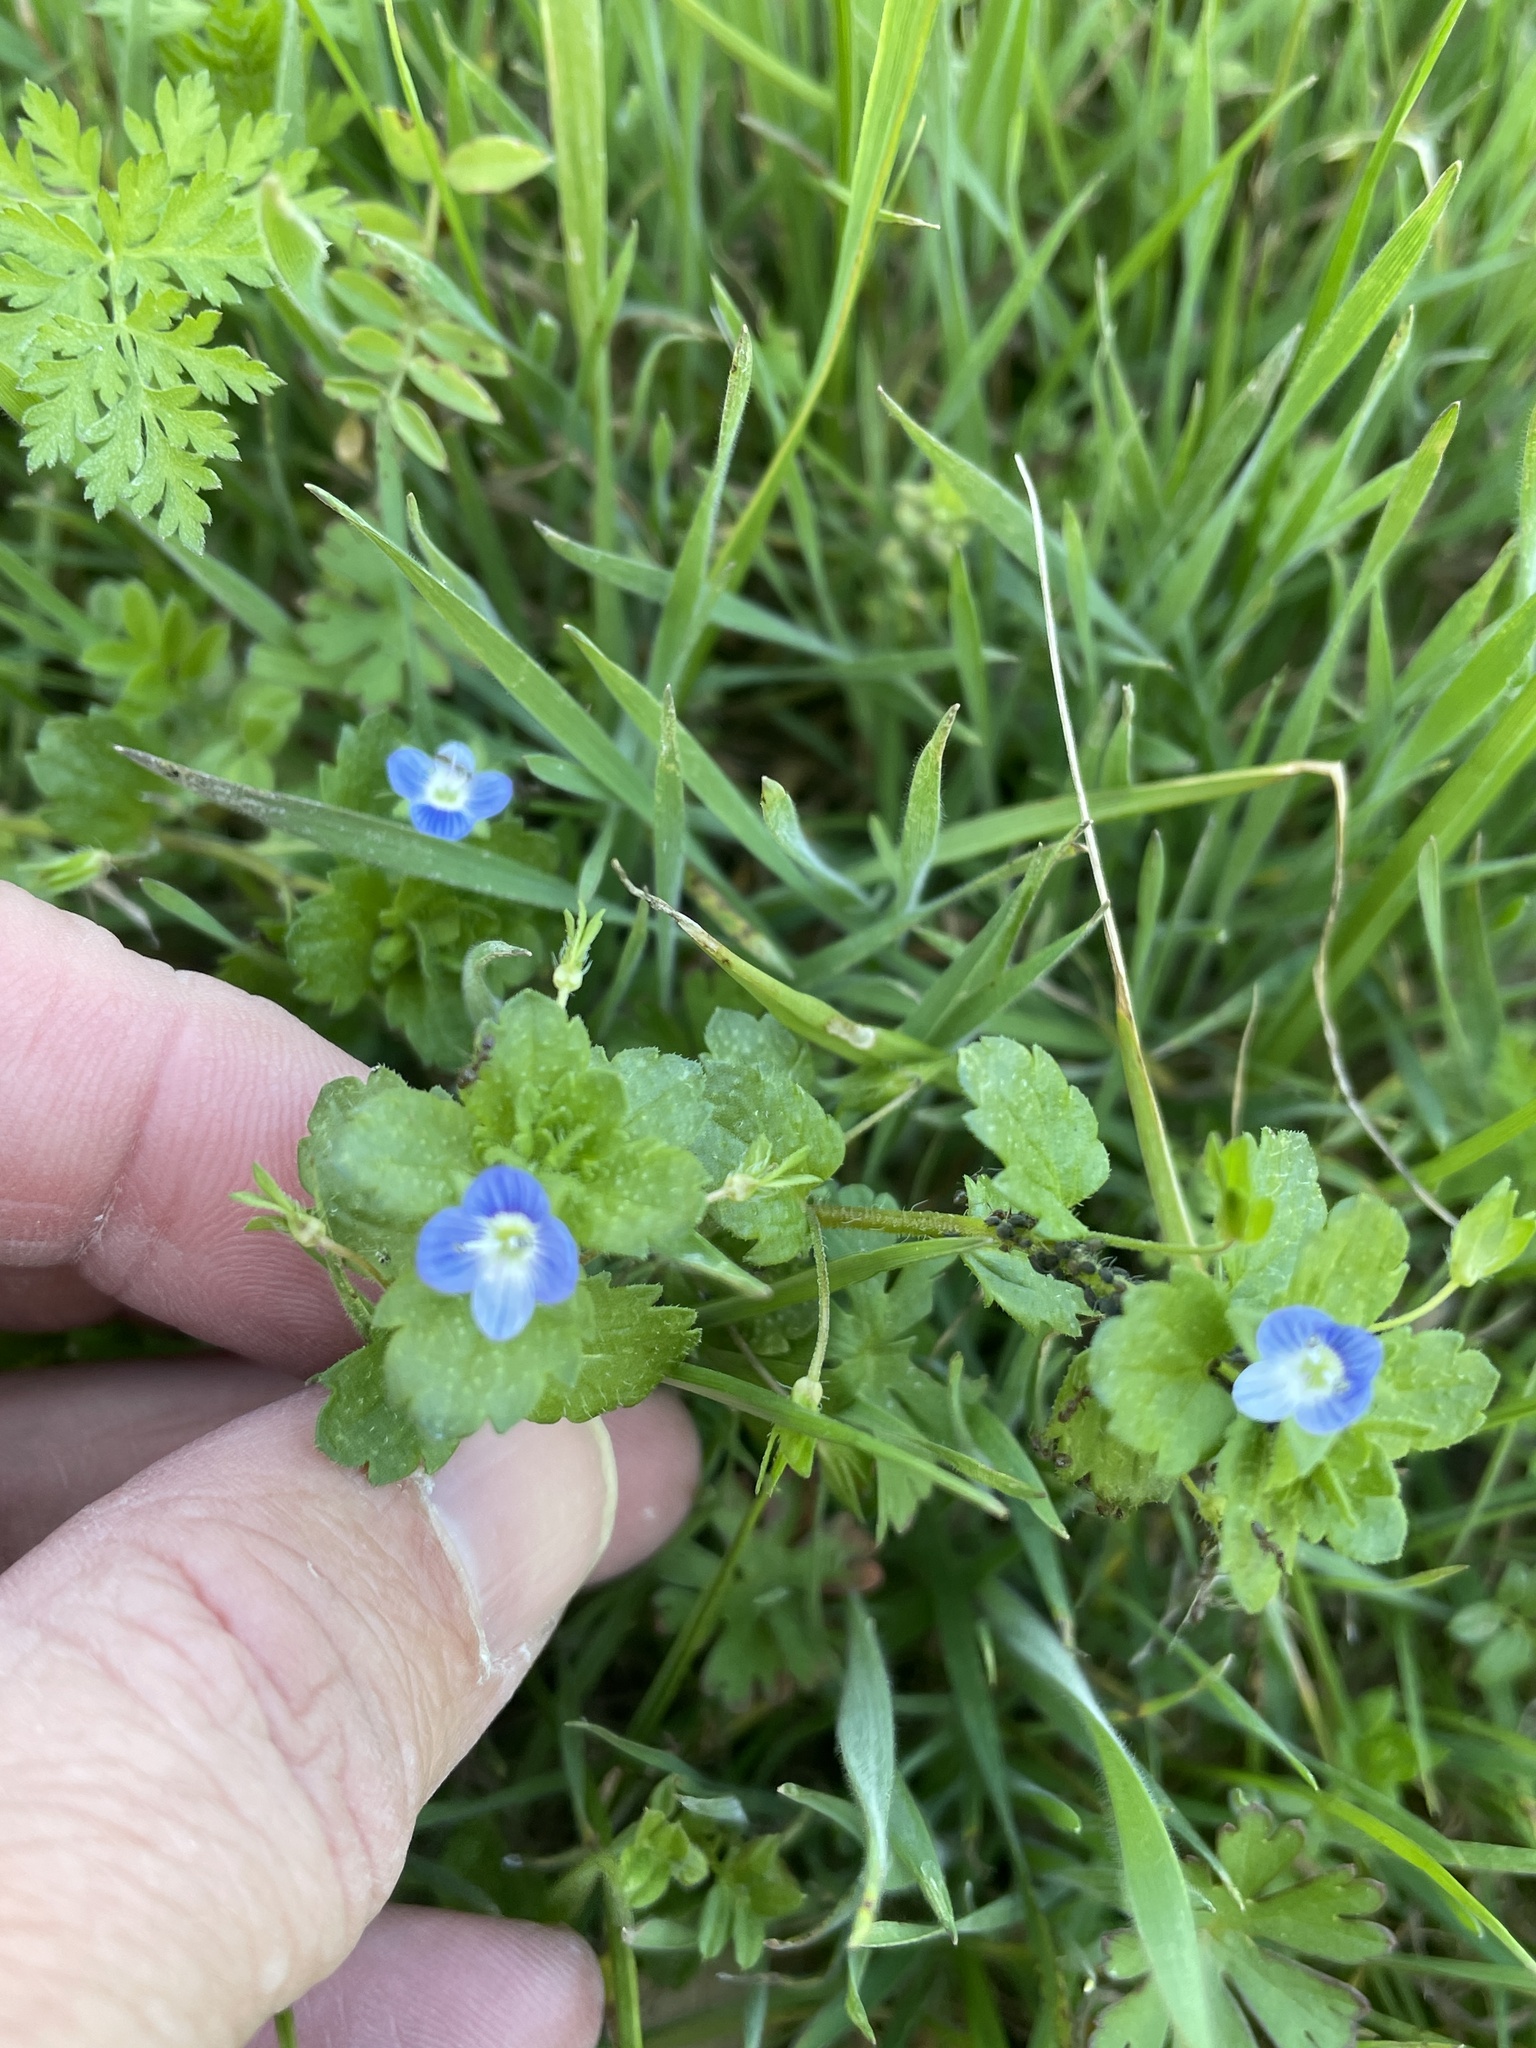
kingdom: Plantae
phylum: Tracheophyta
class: Magnoliopsida
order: Lamiales
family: Plantaginaceae
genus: Veronica
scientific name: Veronica persica
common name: Common field-speedwell
